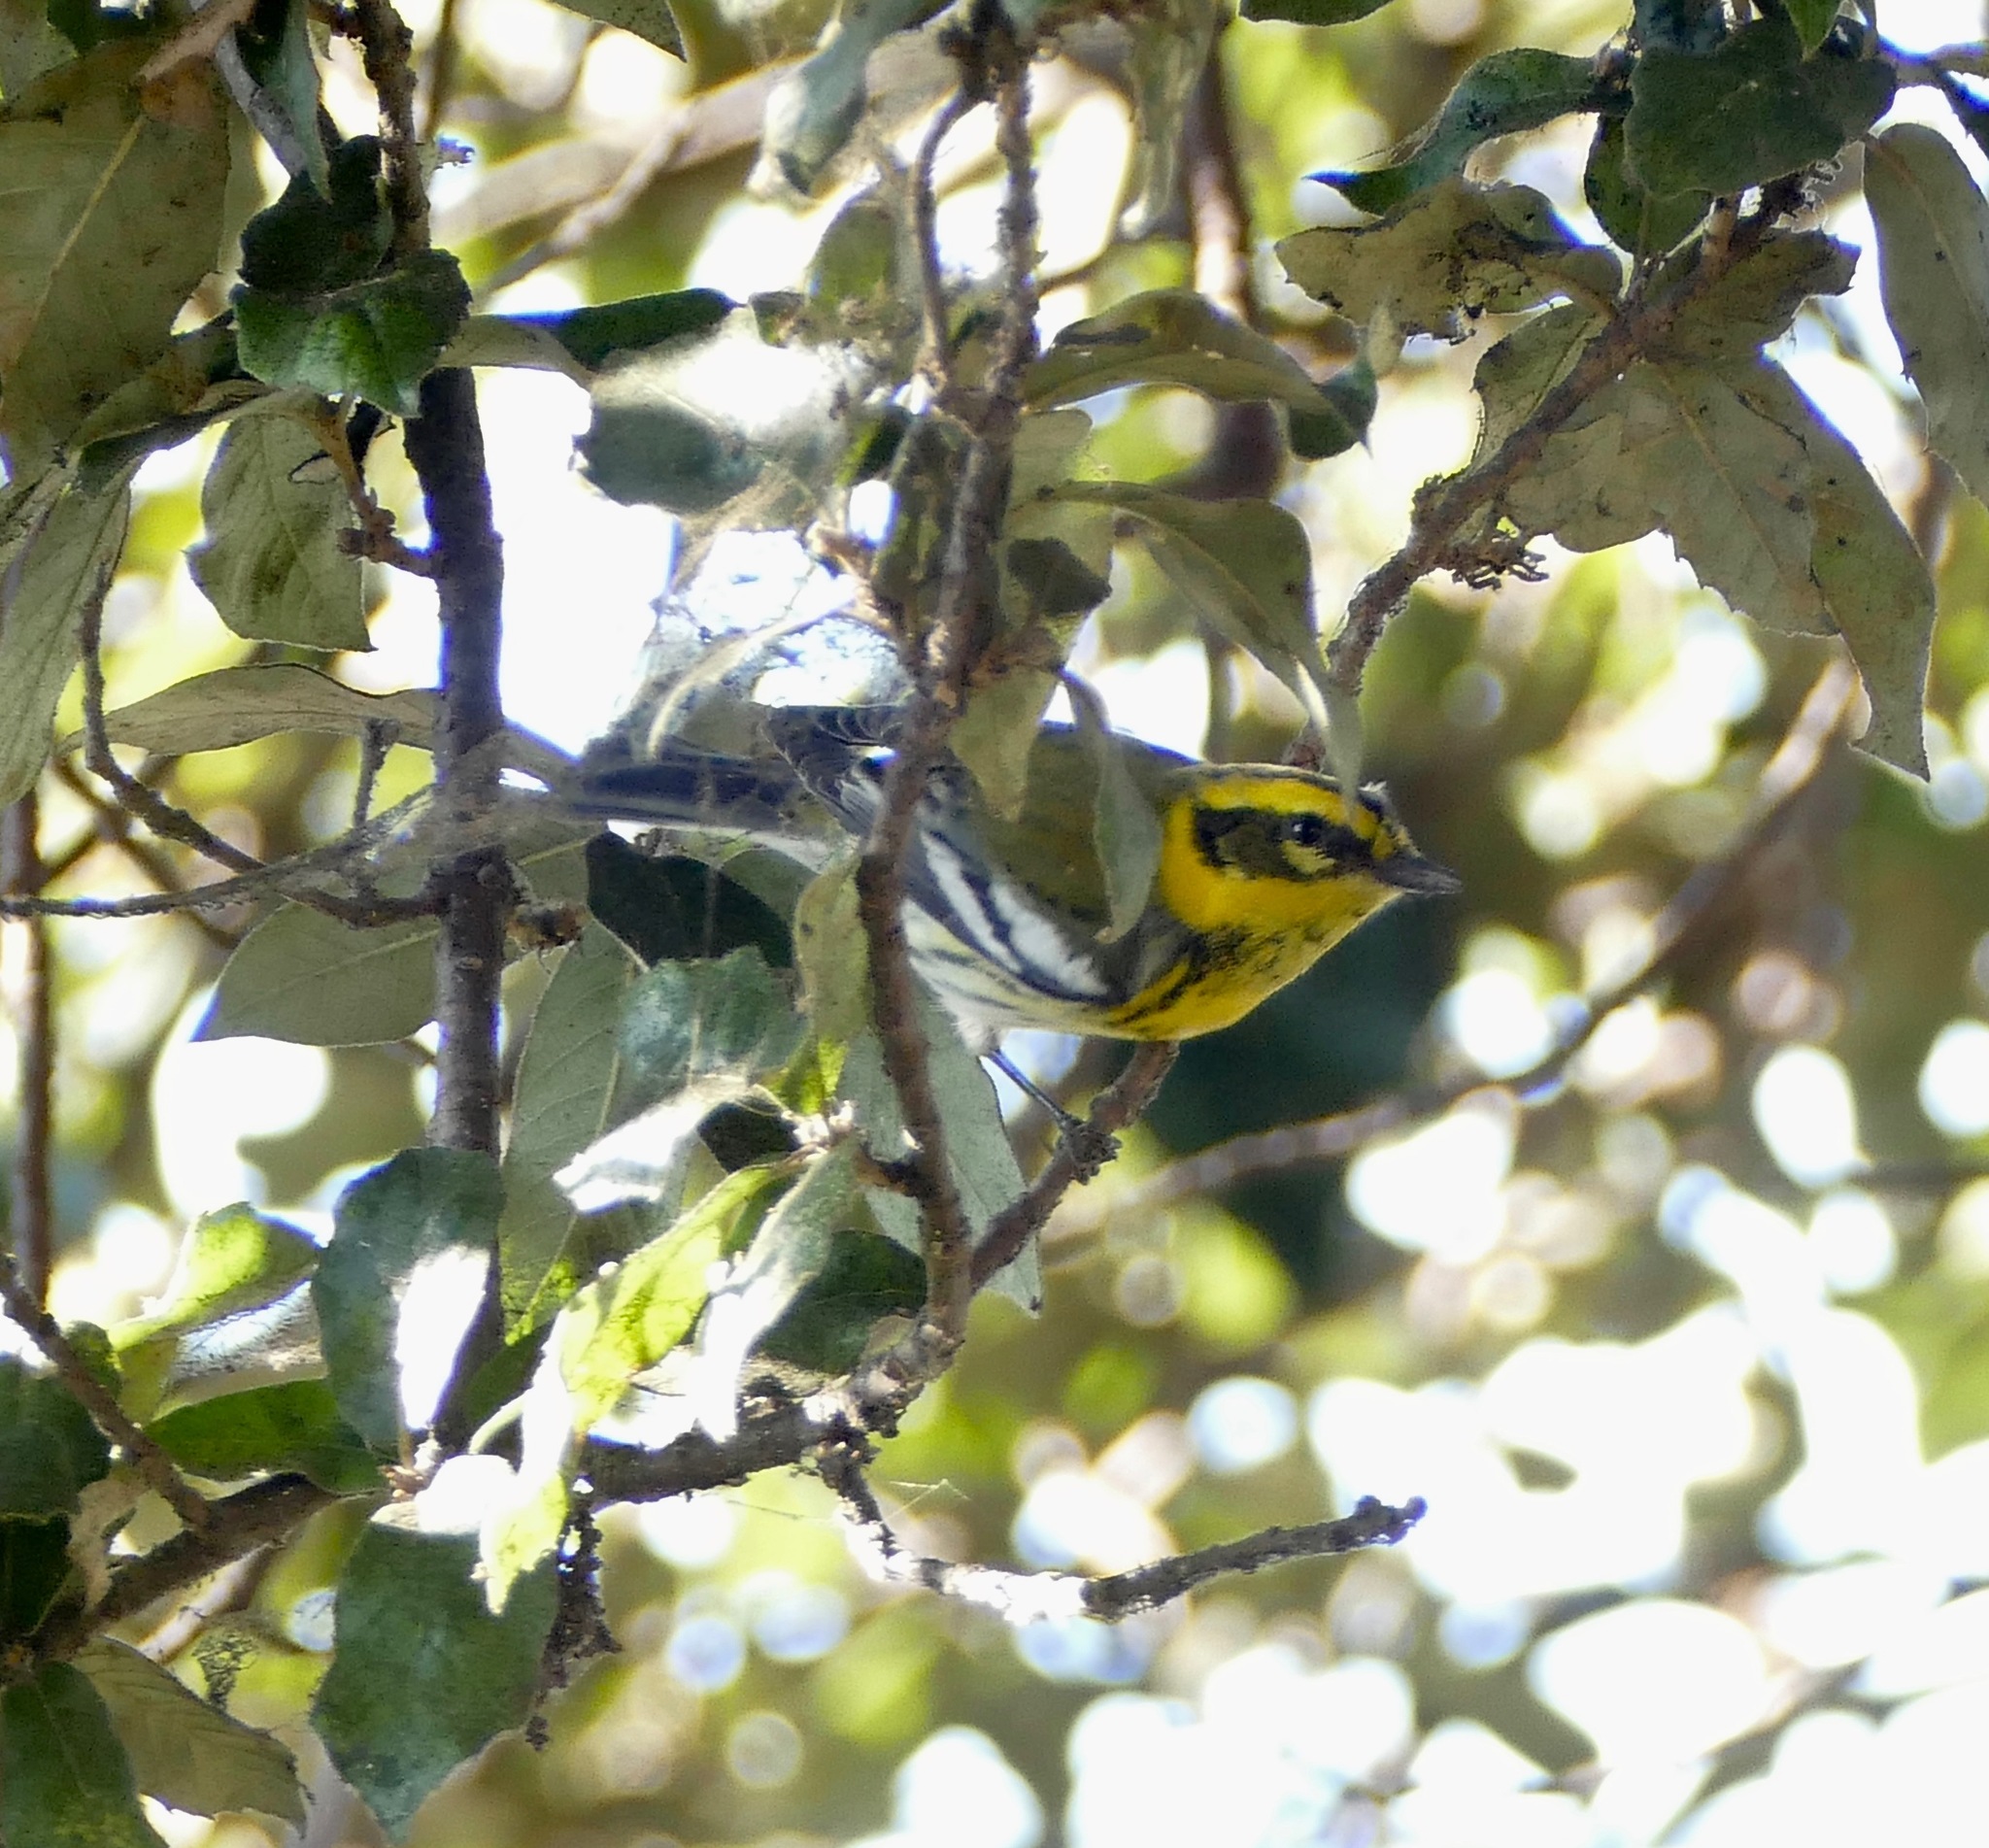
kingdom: Animalia
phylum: Chordata
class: Aves
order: Passeriformes
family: Parulidae
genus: Setophaga
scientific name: Setophaga townsendi
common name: Townsend's warbler
